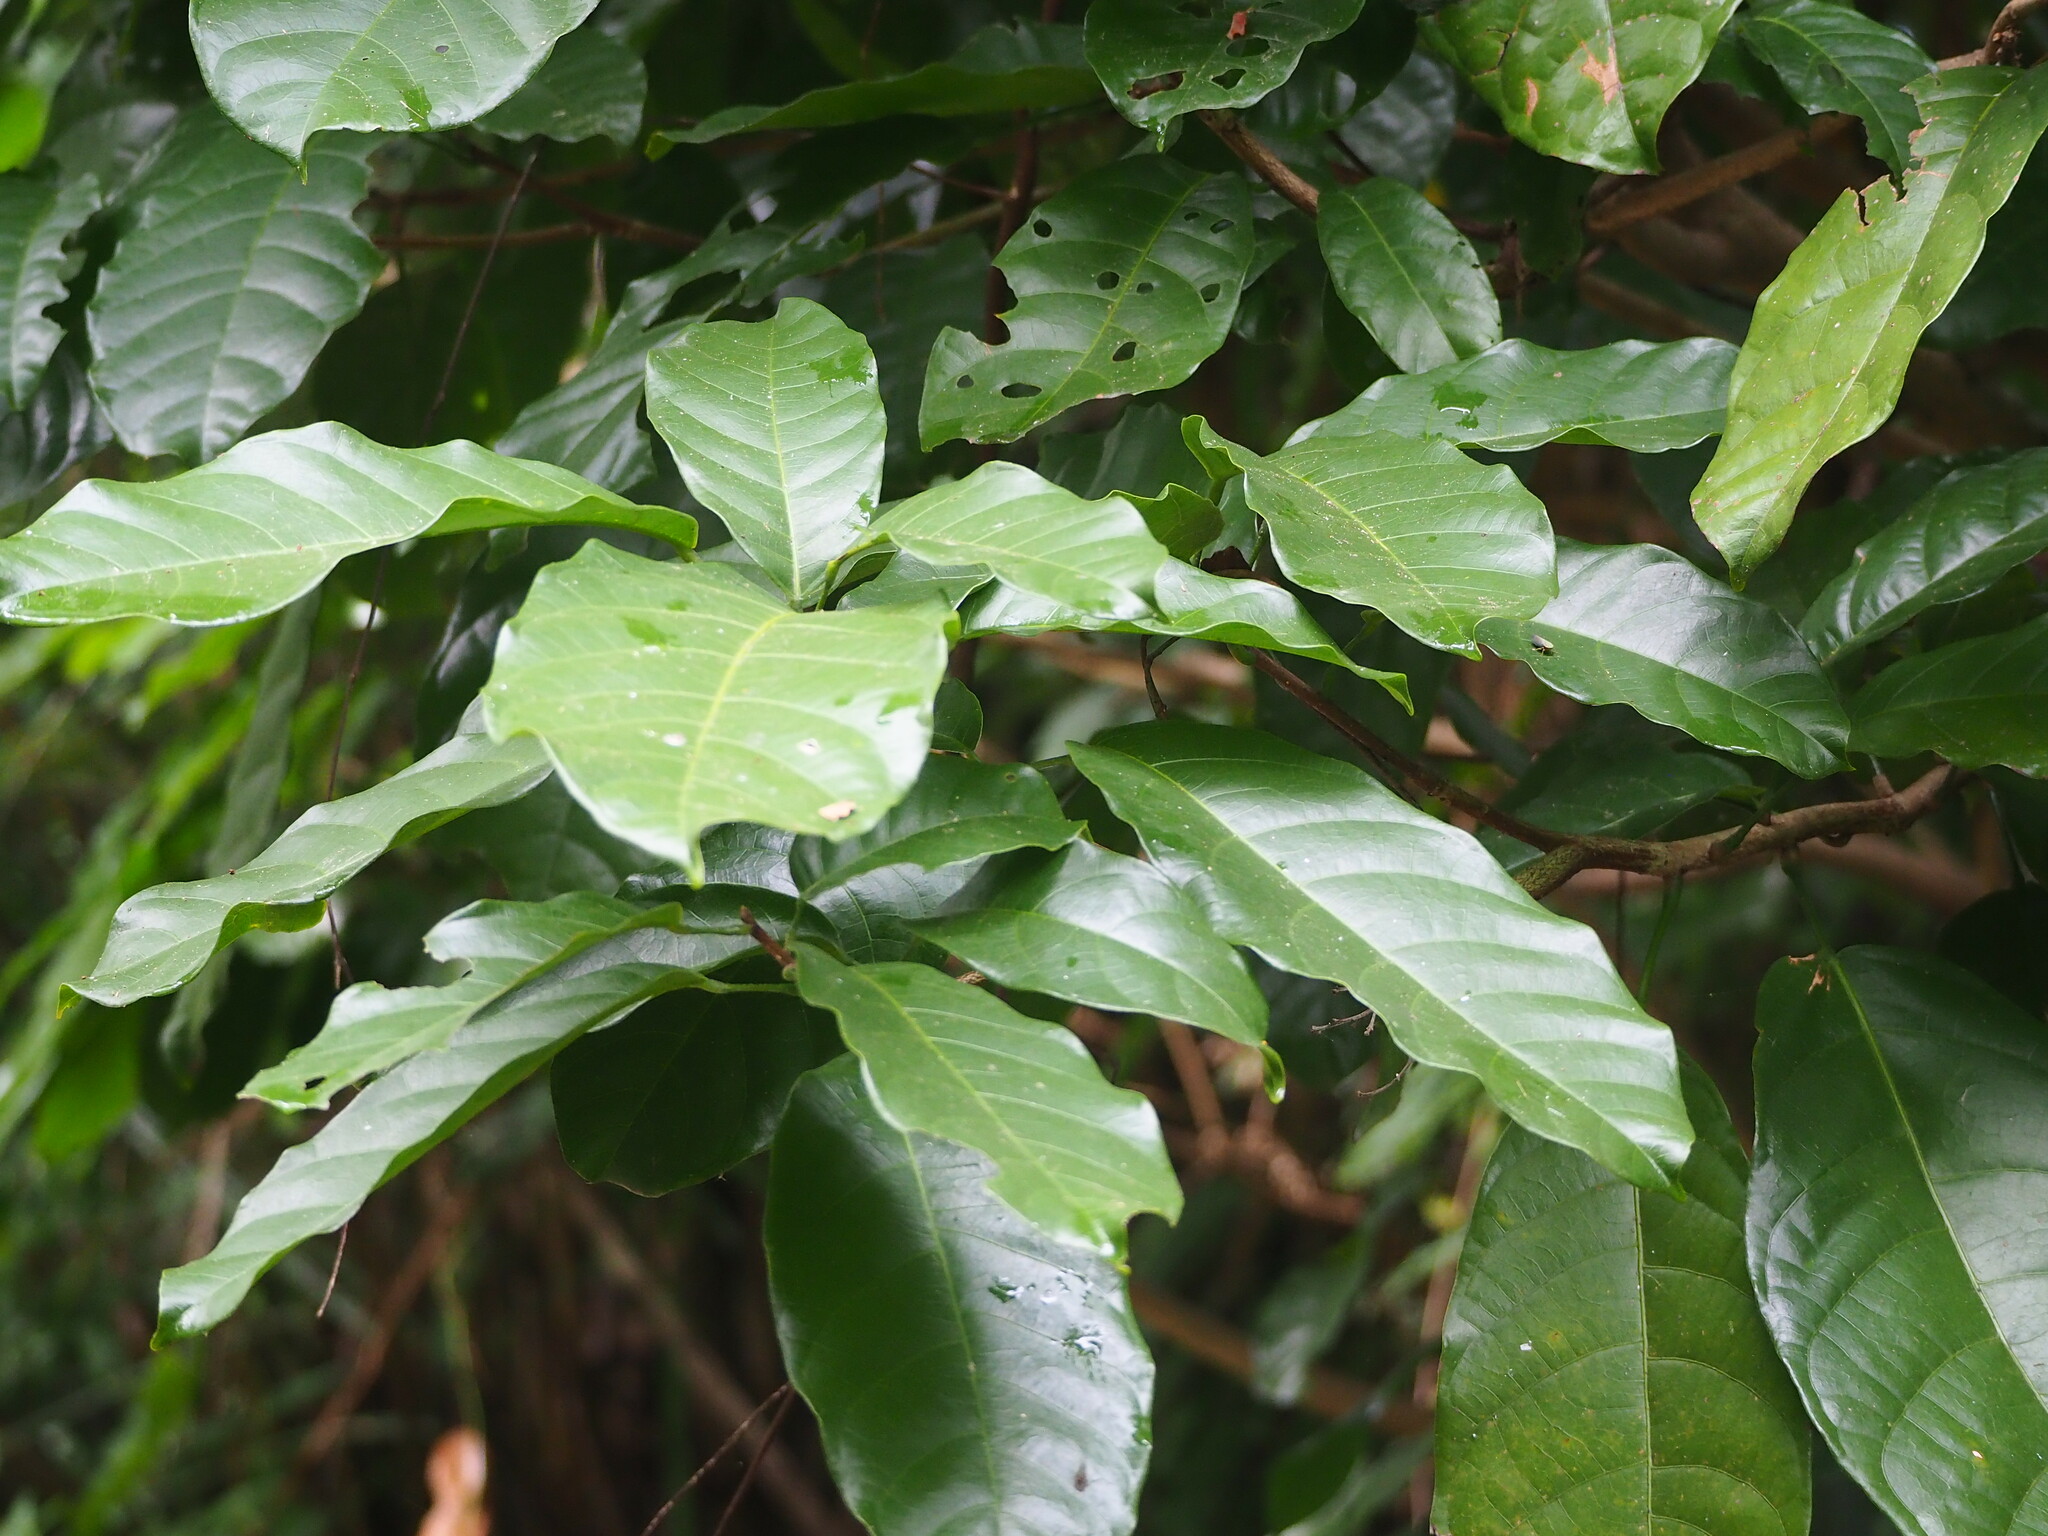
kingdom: Plantae
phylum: Tracheophyta
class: Magnoliopsida
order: Malvales
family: Malvaceae
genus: Sterculia
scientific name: Sterculia monosperma
